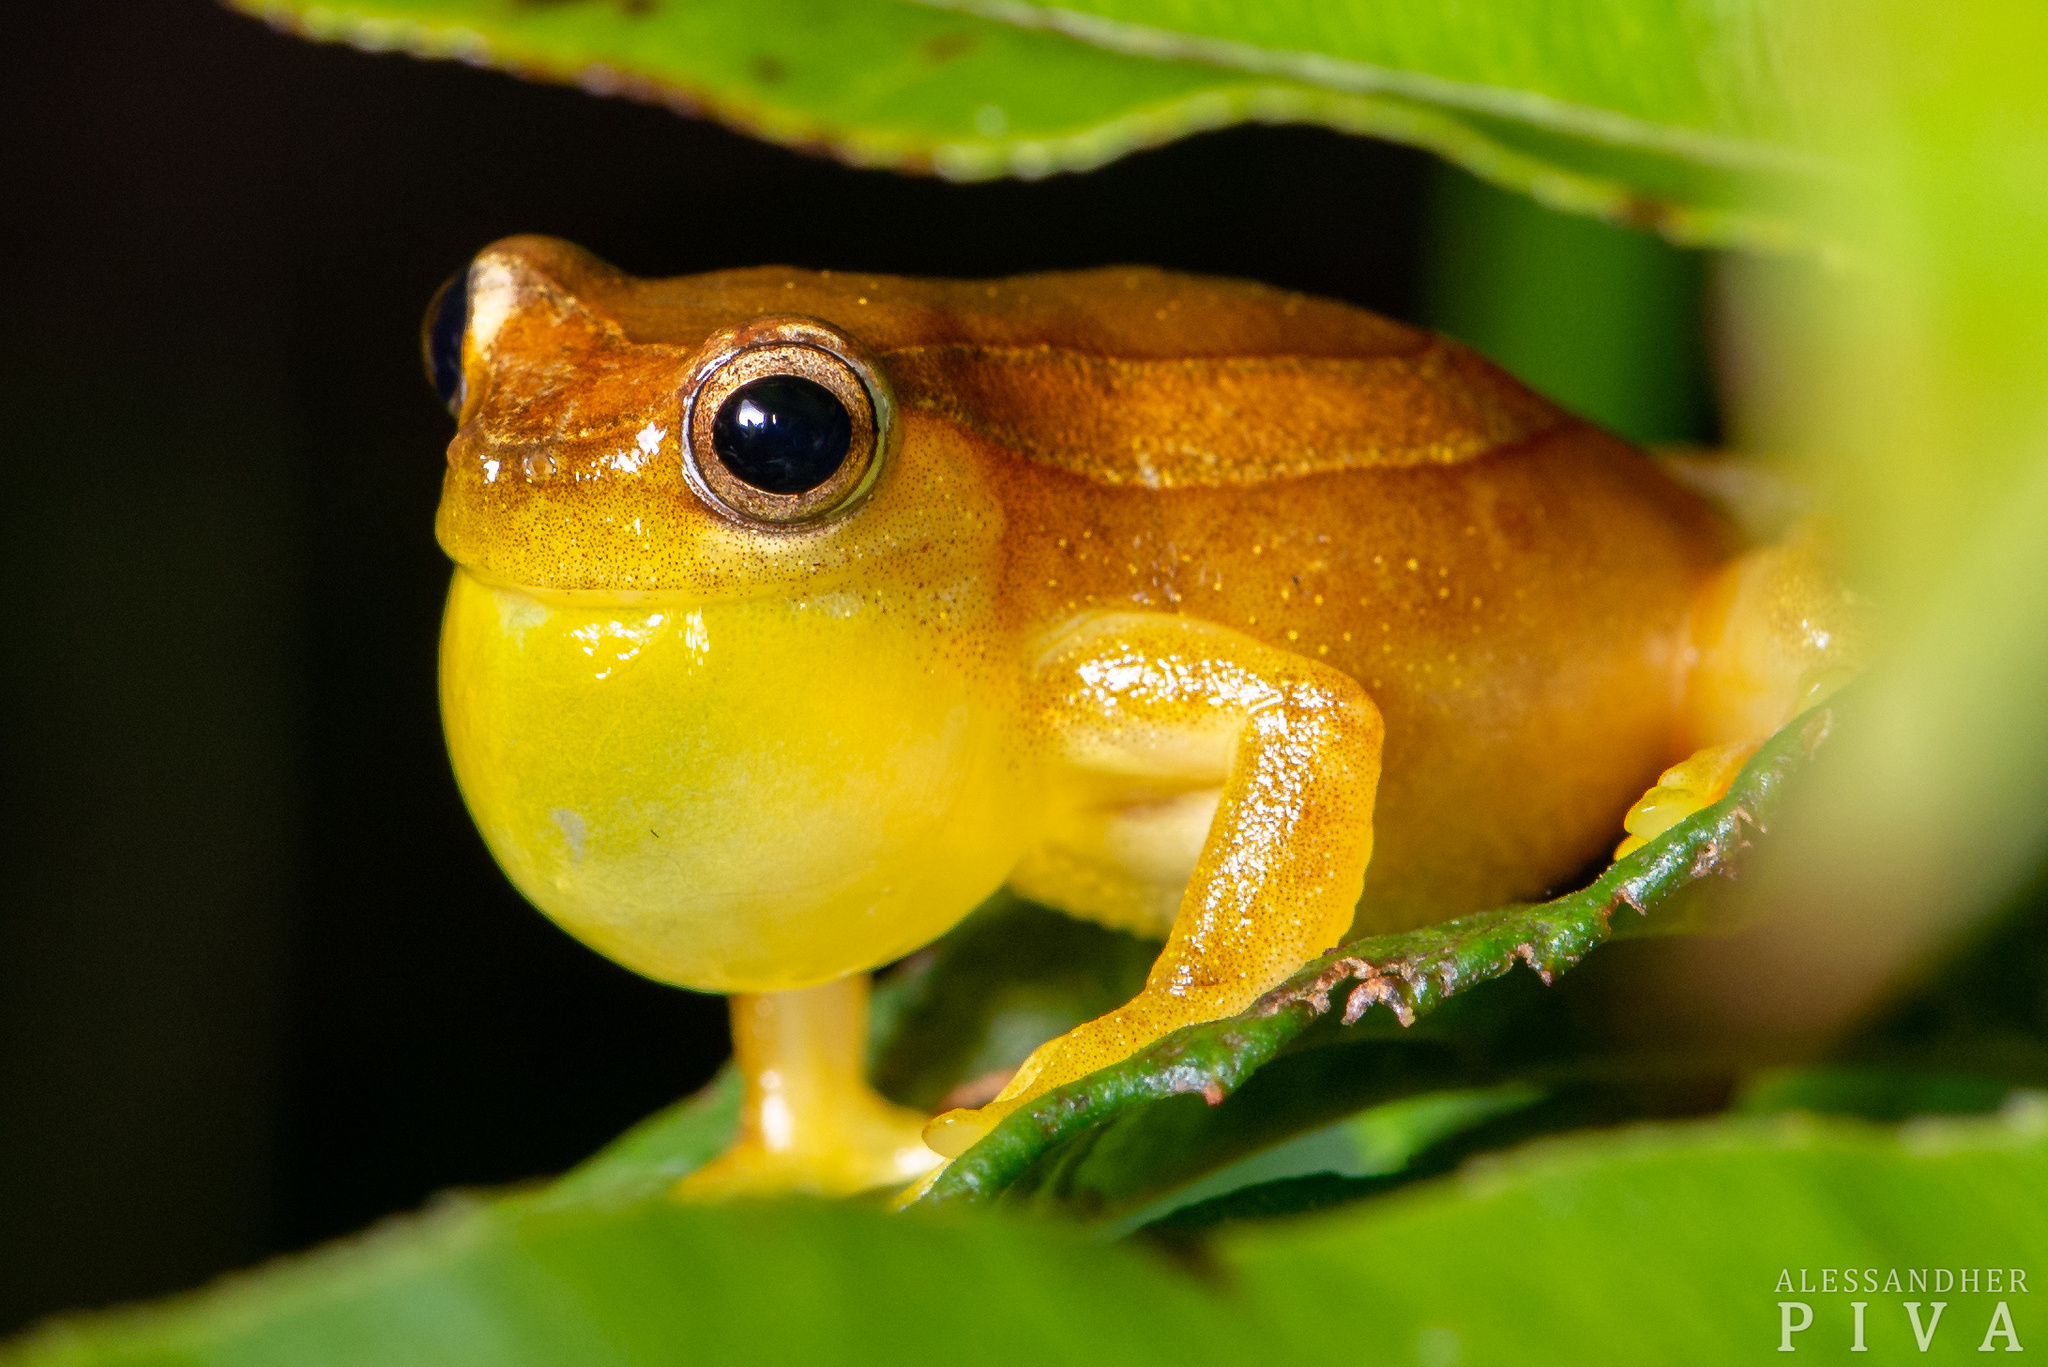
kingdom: Animalia
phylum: Chordata
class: Amphibia
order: Anura
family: Hylidae
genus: Dendropsophus
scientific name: Dendropsophus elegans
